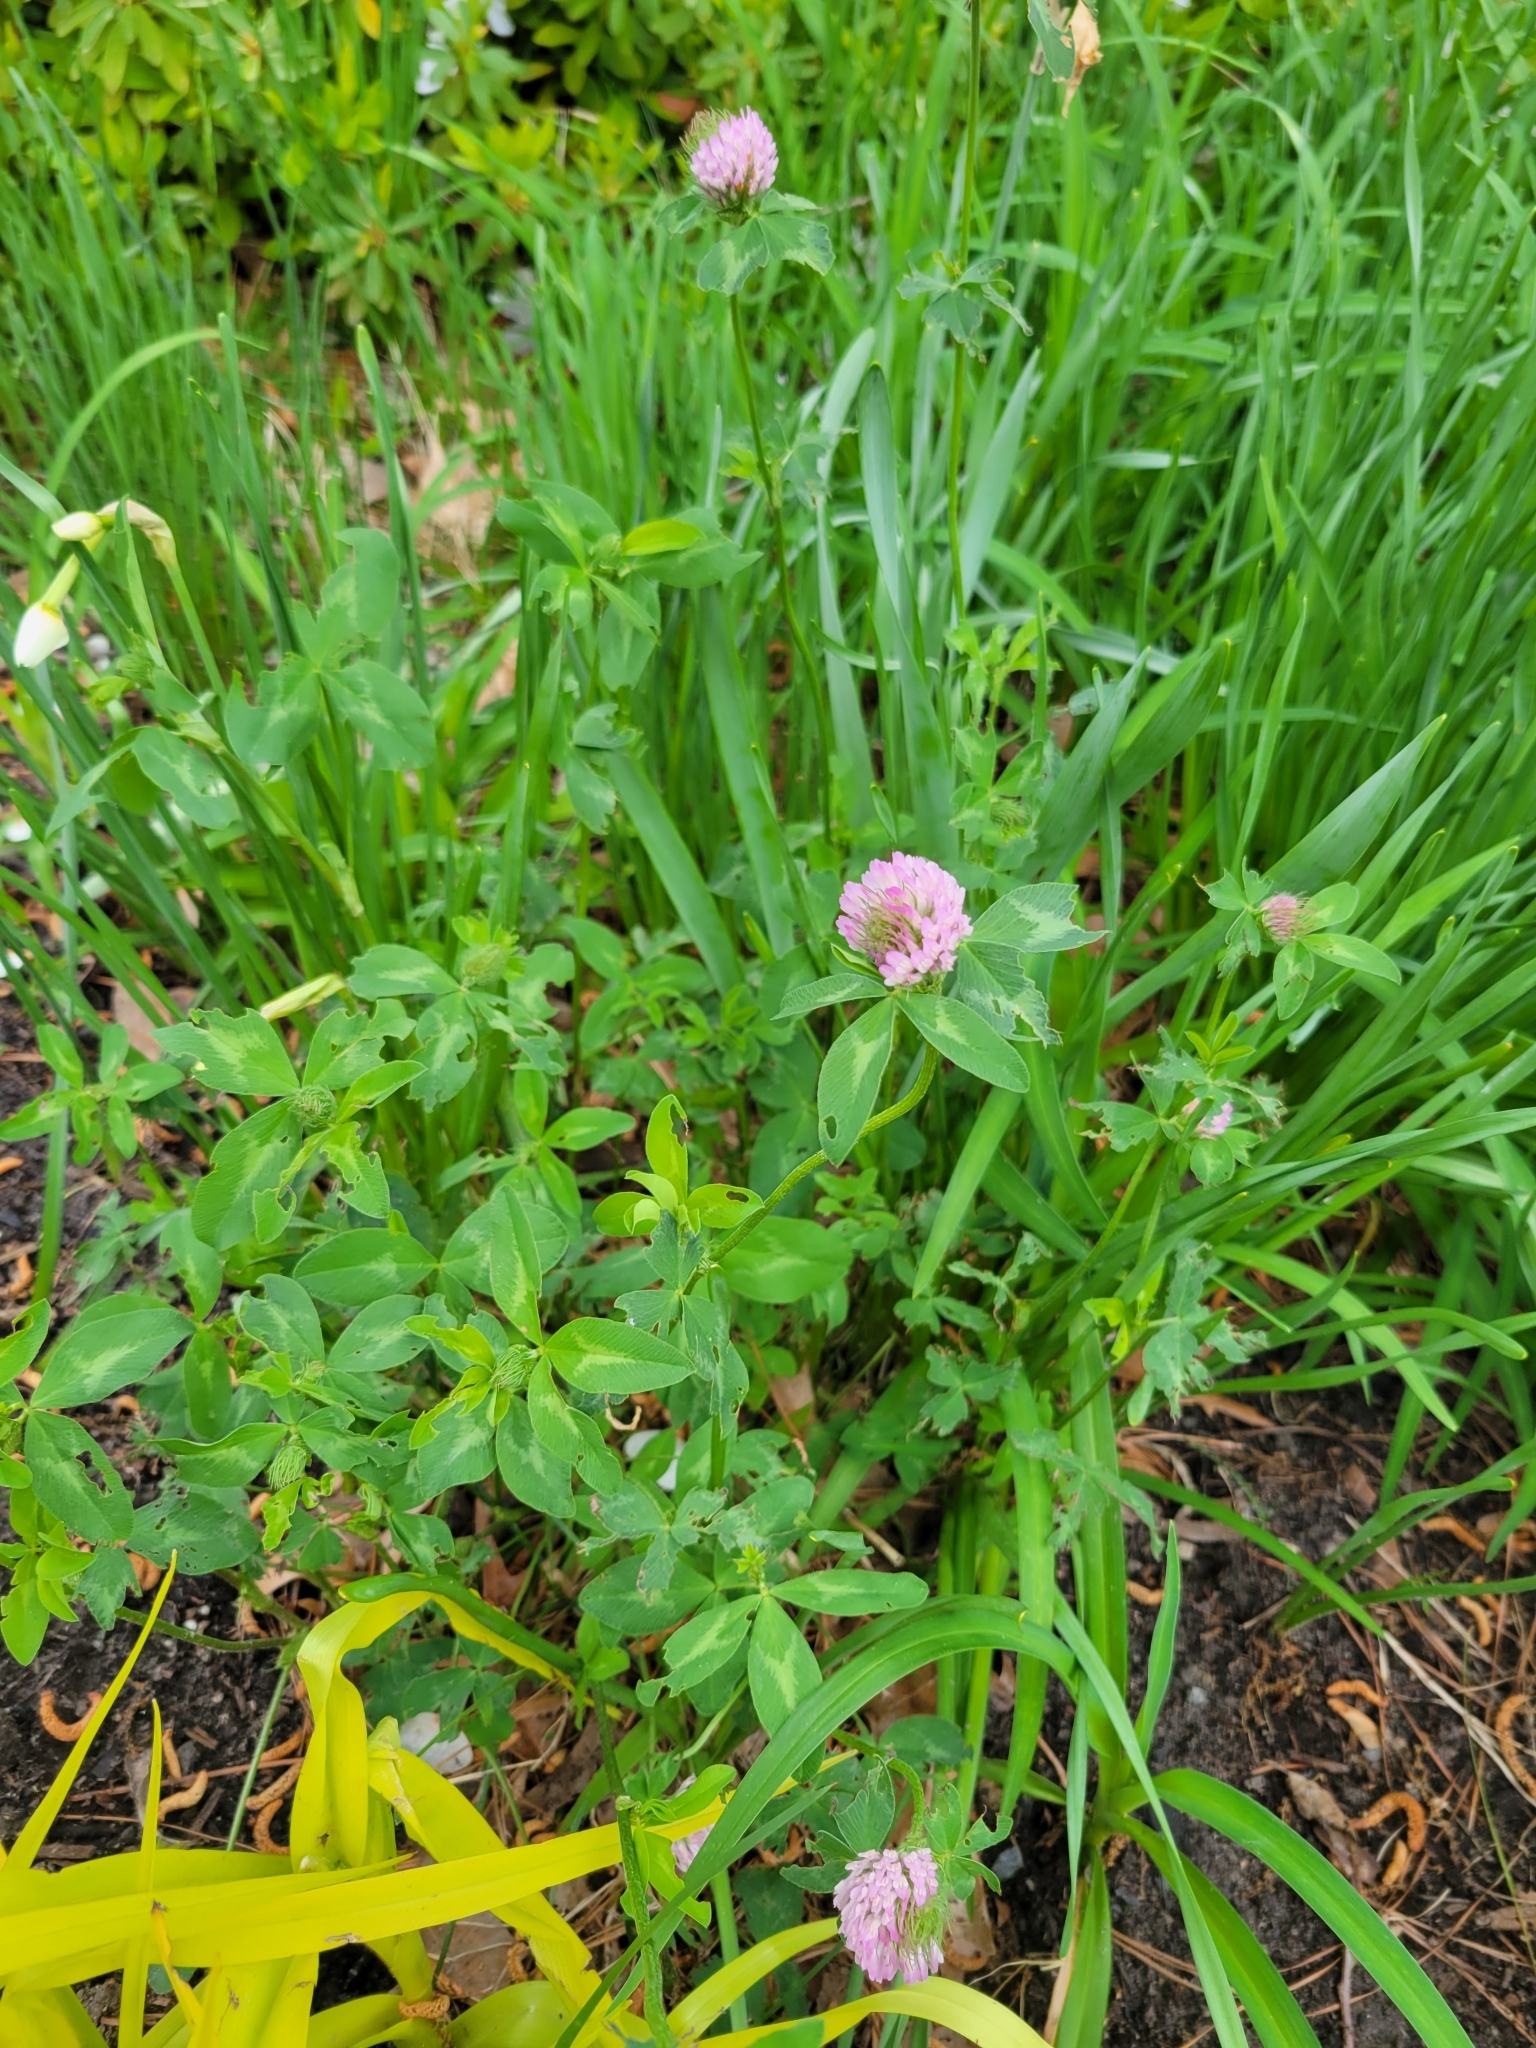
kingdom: Plantae
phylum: Tracheophyta
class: Magnoliopsida
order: Fabales
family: Fabaceae
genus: Trifolium
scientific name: Trifolium pratense
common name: Red clover
